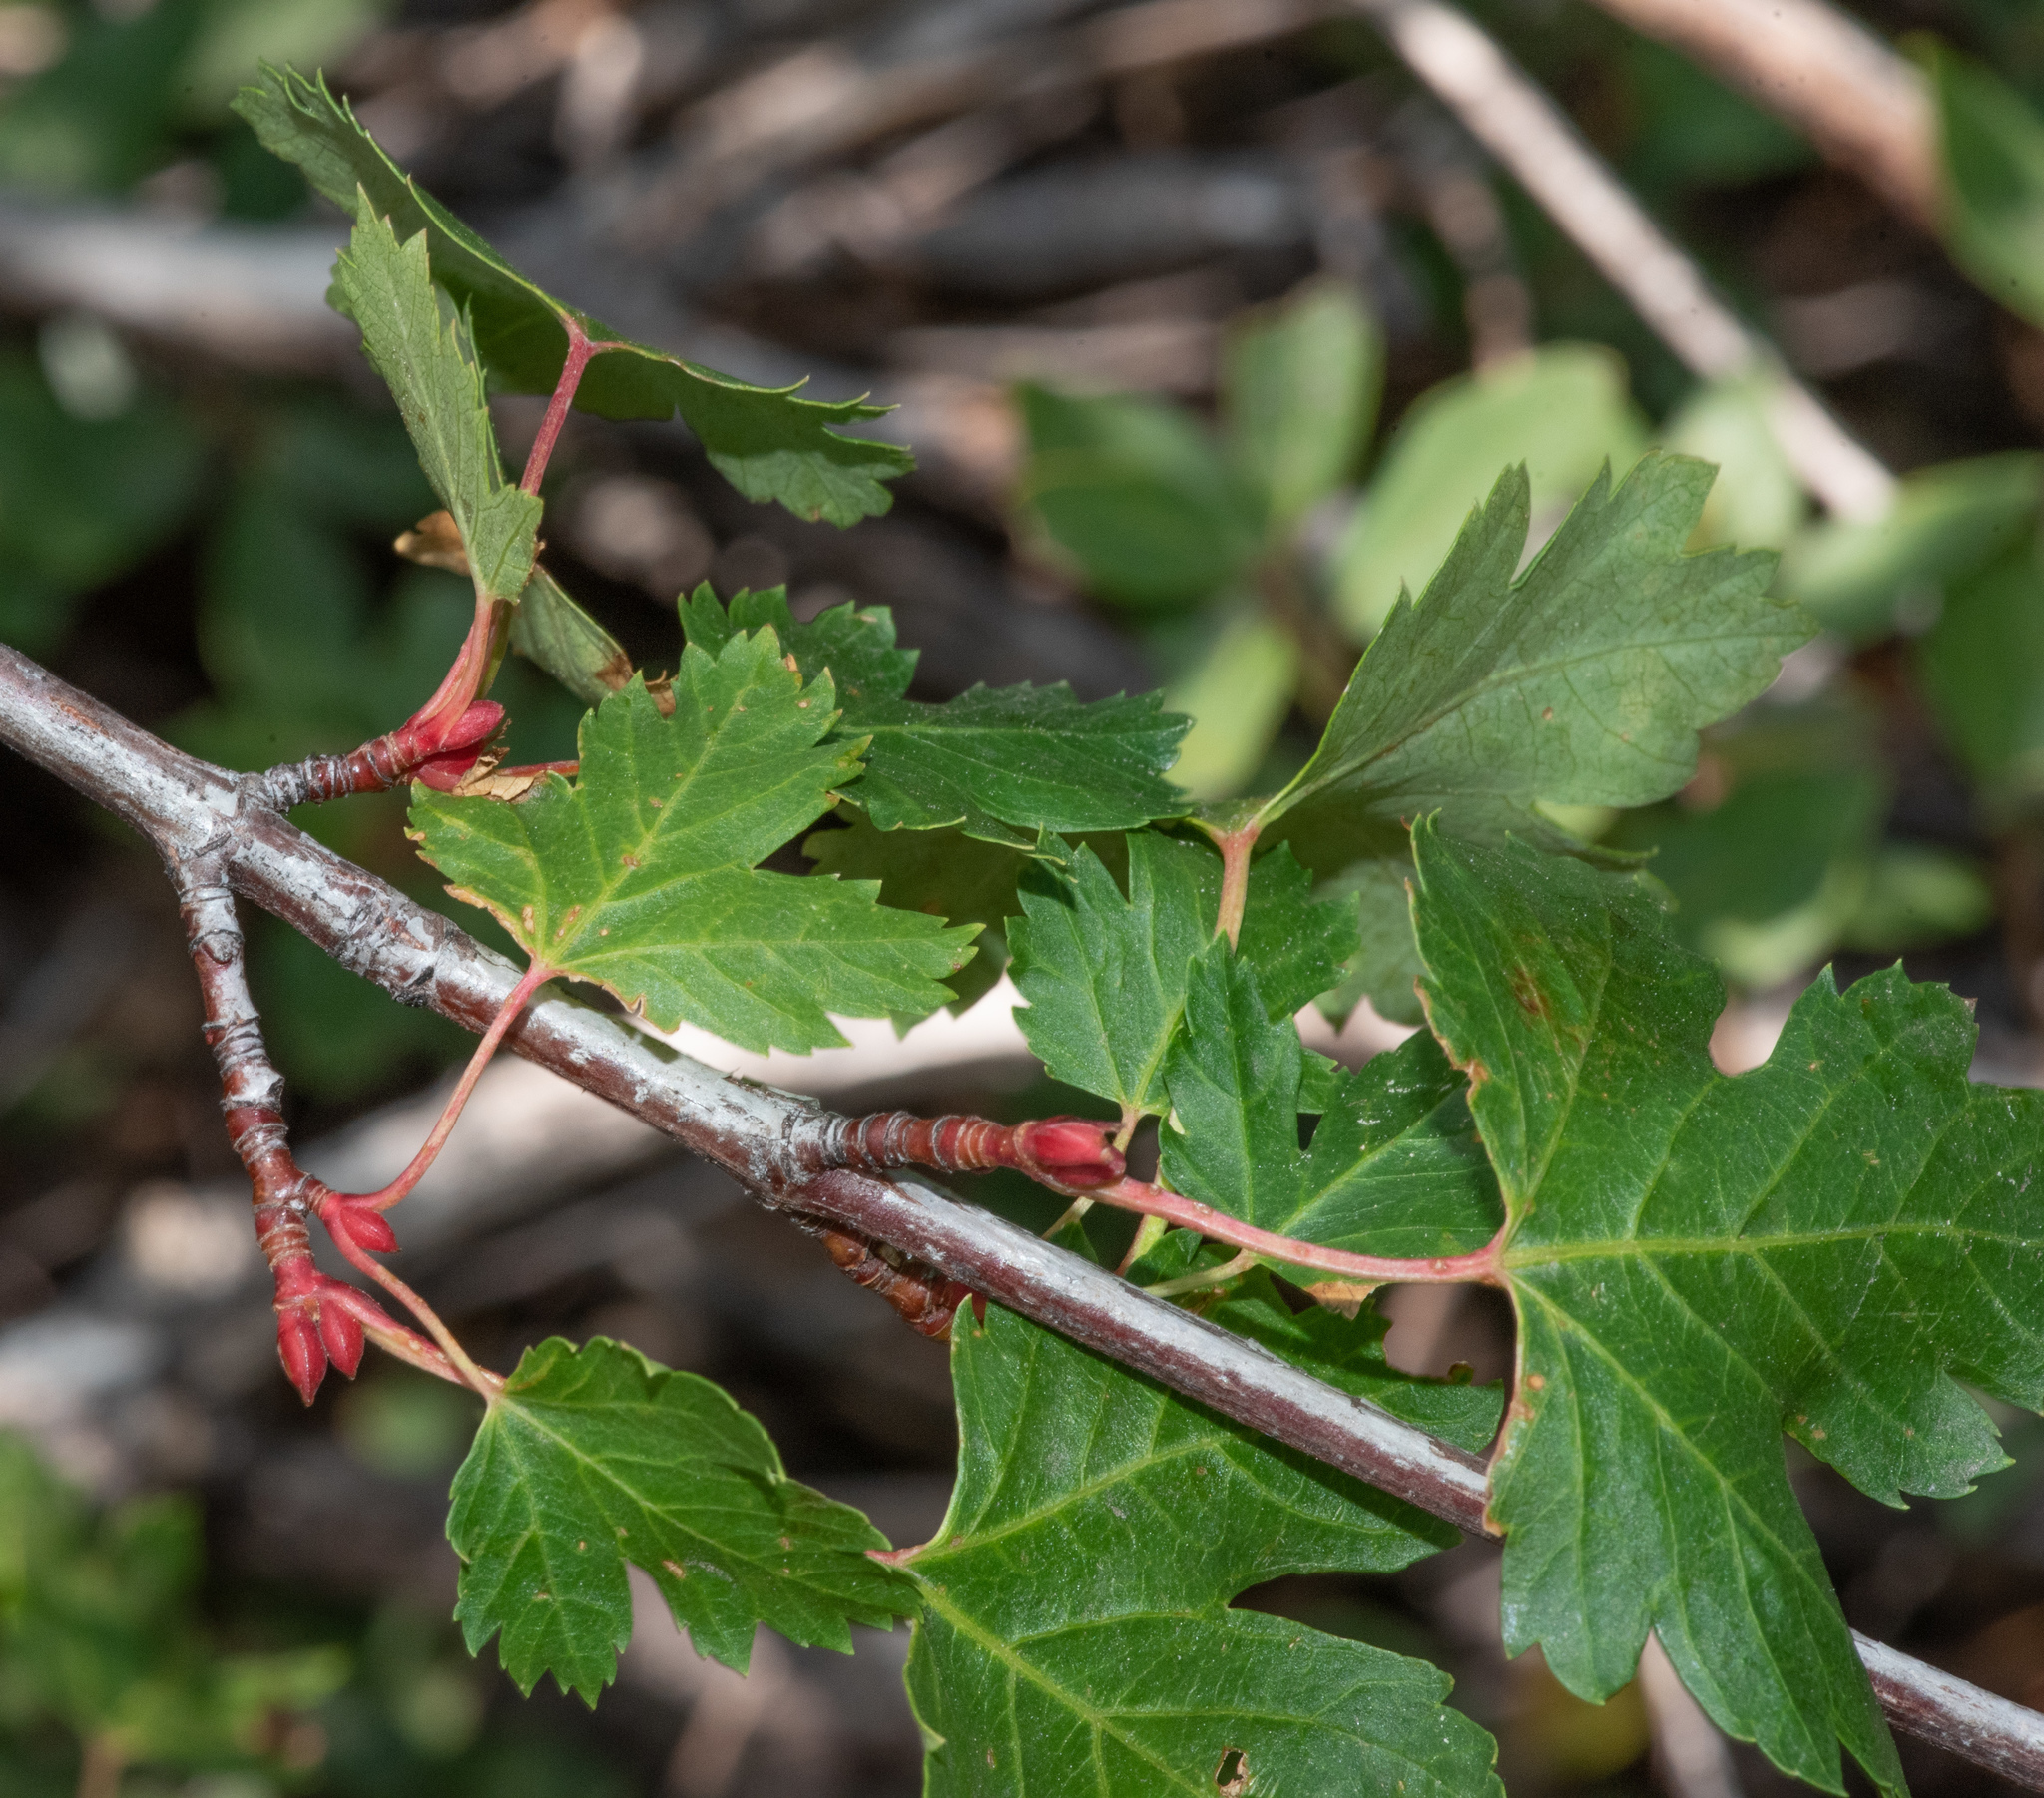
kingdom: Plantae
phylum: Tracheophyta
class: Magnoliopsida
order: Sapindales
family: Sapindaceae
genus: Acer
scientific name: Acer glabrum
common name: Rocky mountain maple
